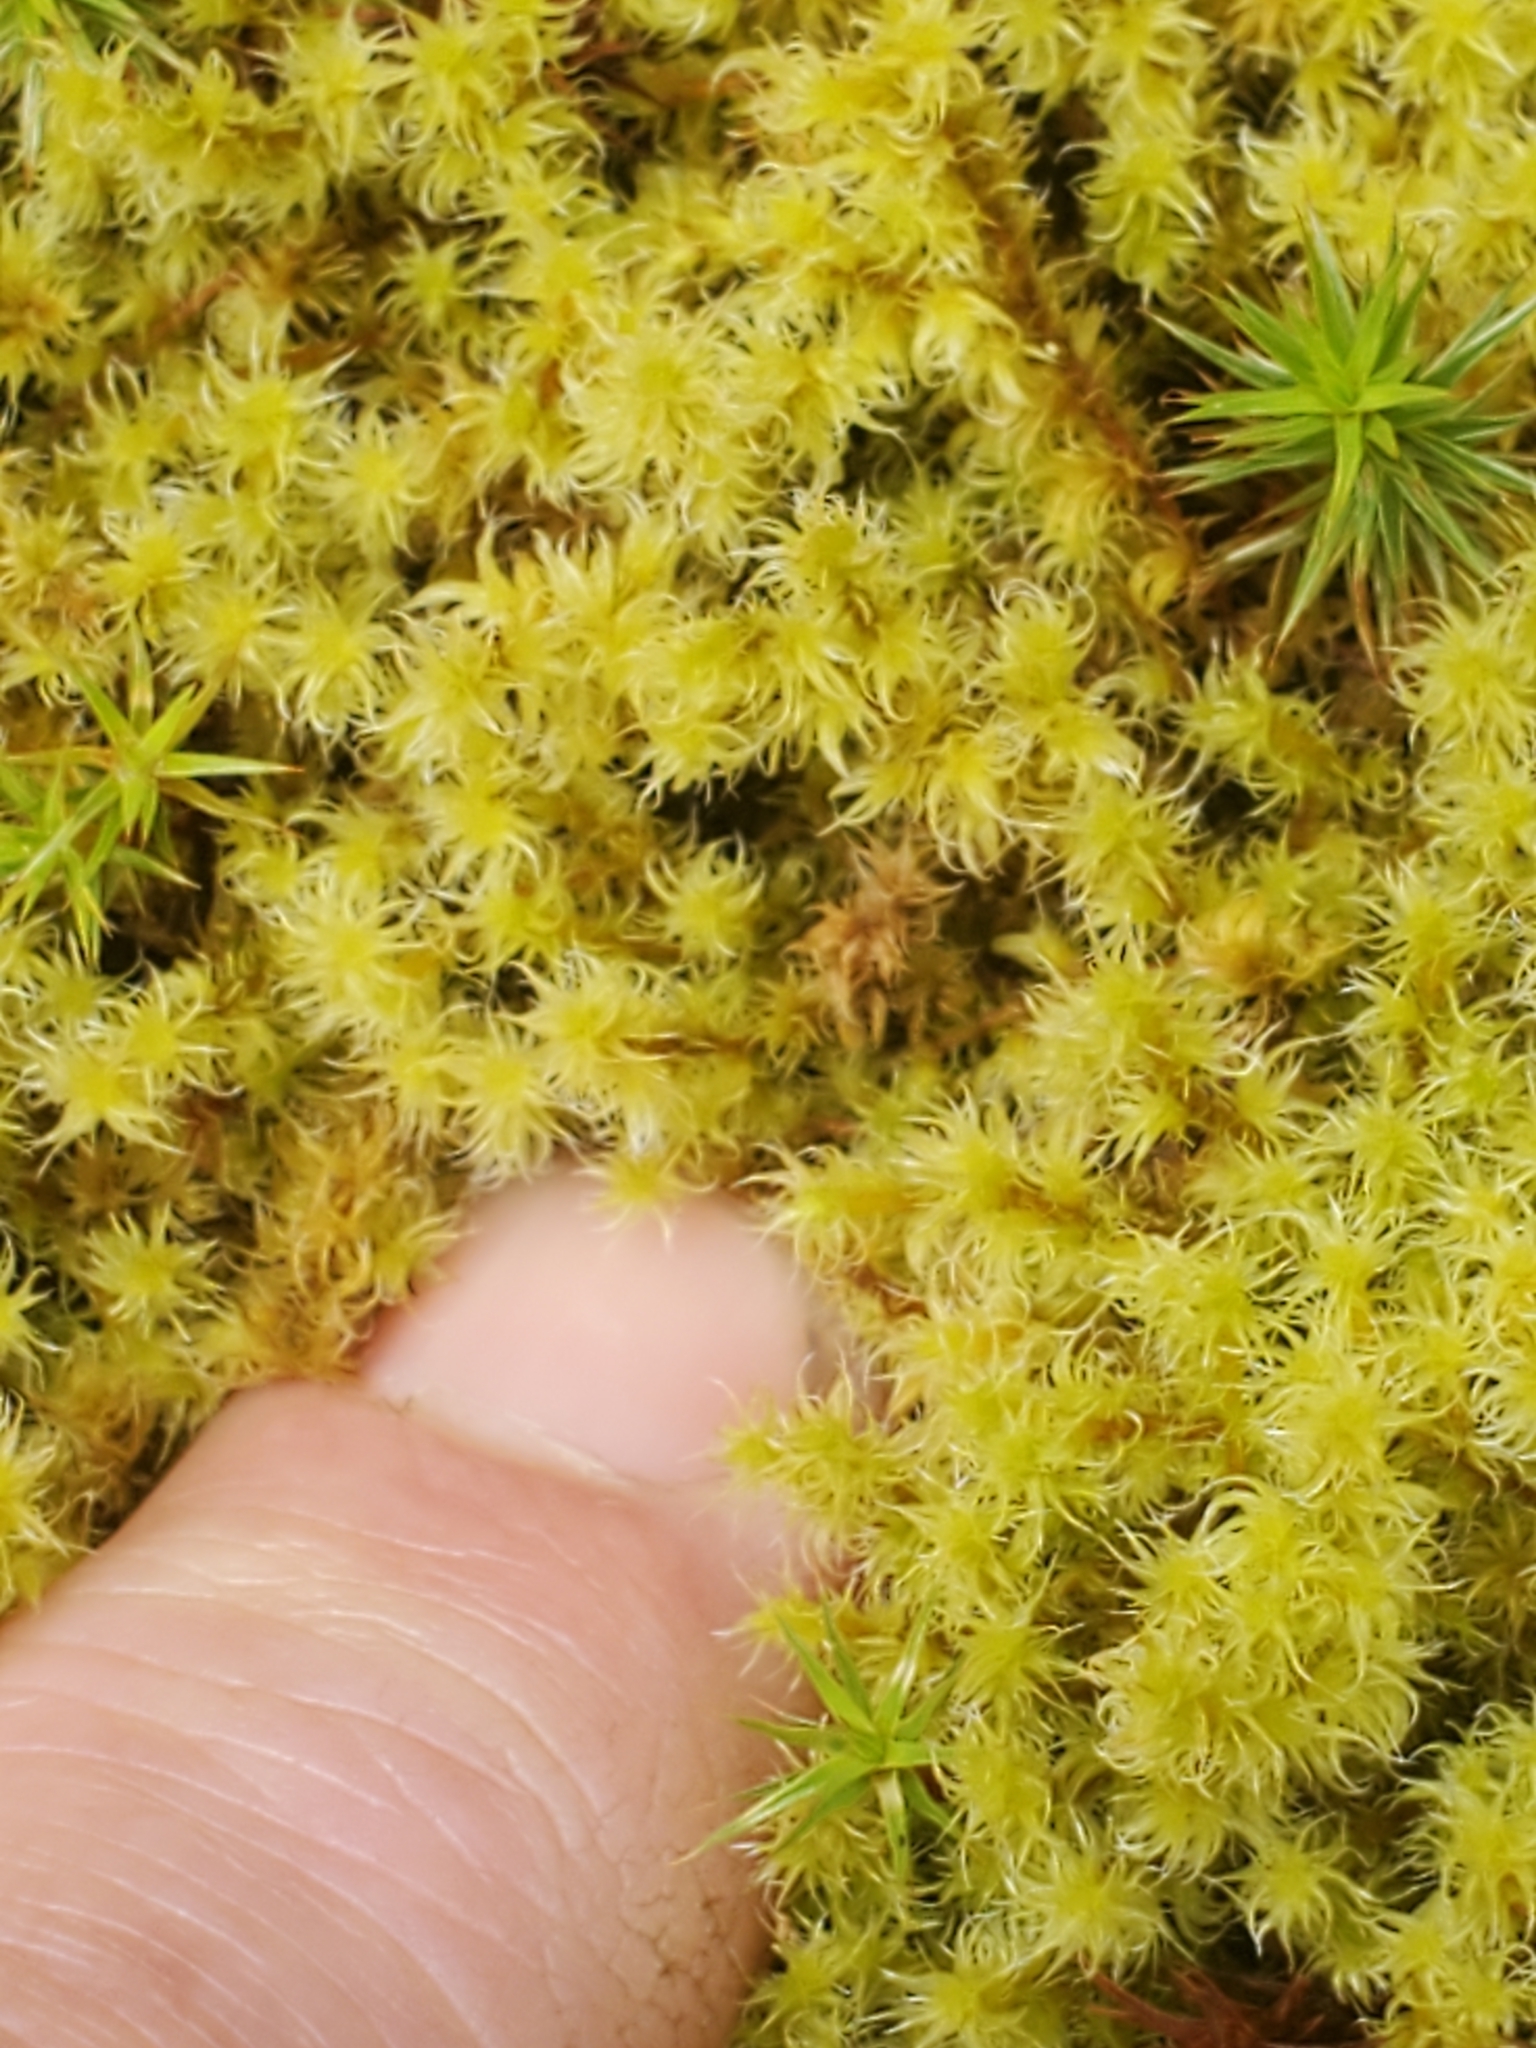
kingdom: Plantae
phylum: Bryophyta
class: Bryopsida
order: Grimmiales
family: Grimmiaceae
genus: Niphotrichum
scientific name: Niphotrichum elongatum
